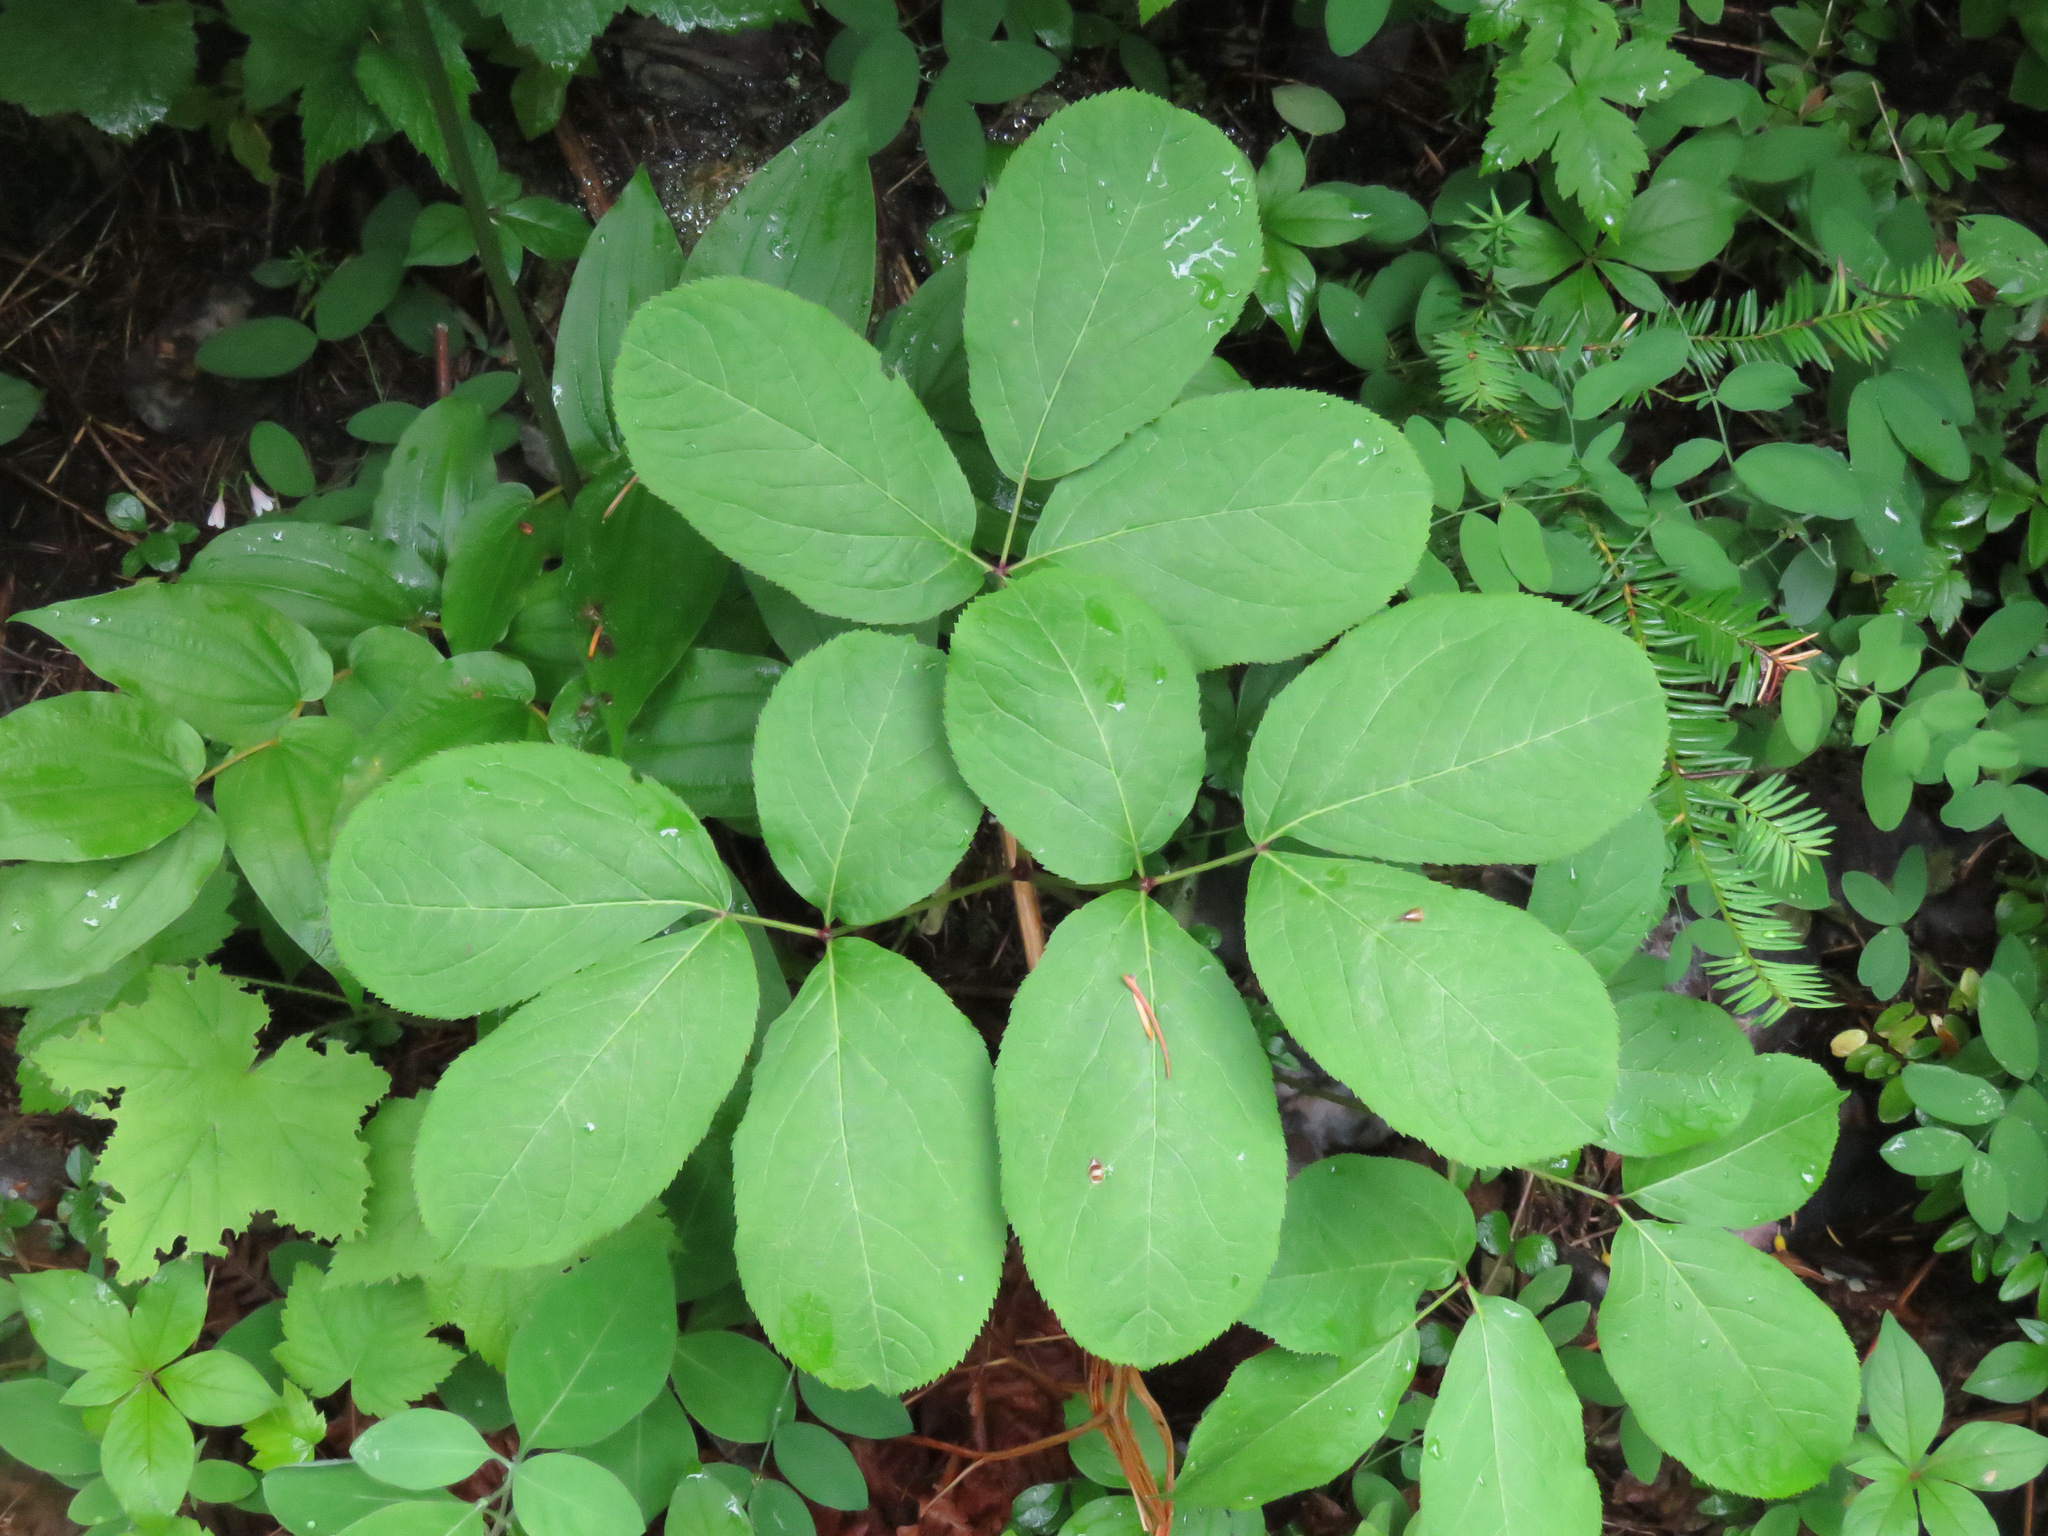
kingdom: Plantae
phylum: Tracheophyta
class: Magnoliopsida
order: Apiales
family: Araliaceae
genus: Aralia
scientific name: Aralia nudicaulis
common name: Wild sarsaparilla
